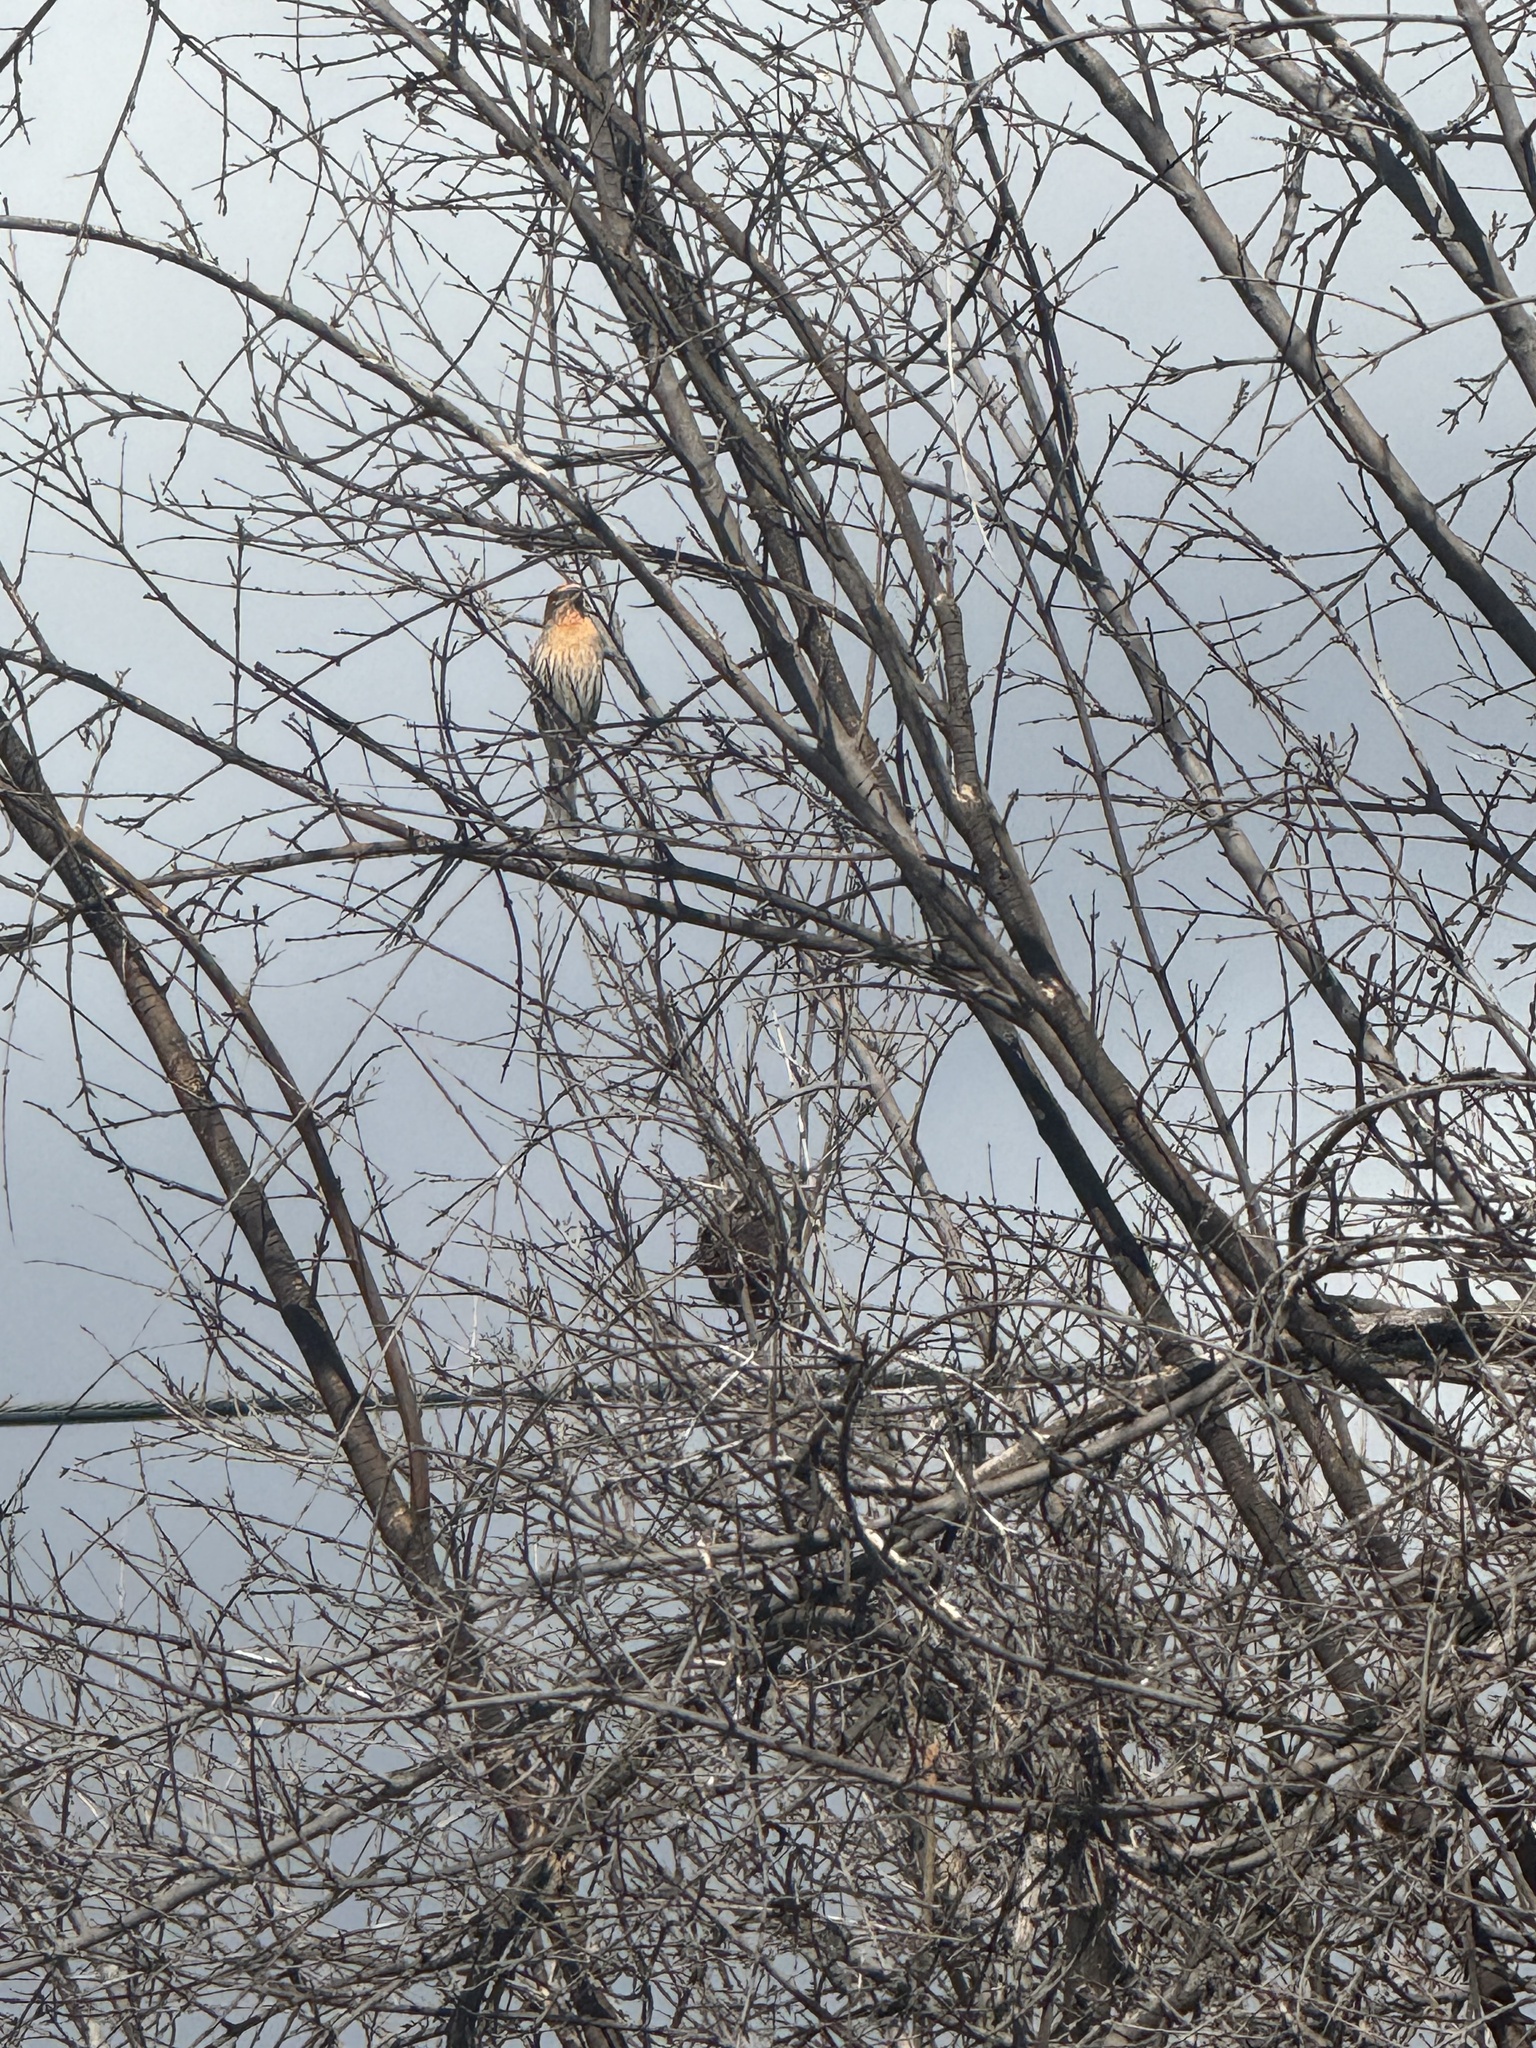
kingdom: Animalia
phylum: Chordata
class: Aves
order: Passeriformes
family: Fringillidae
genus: Haemorhous
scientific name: Haemorhous mexicanus
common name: House finch
